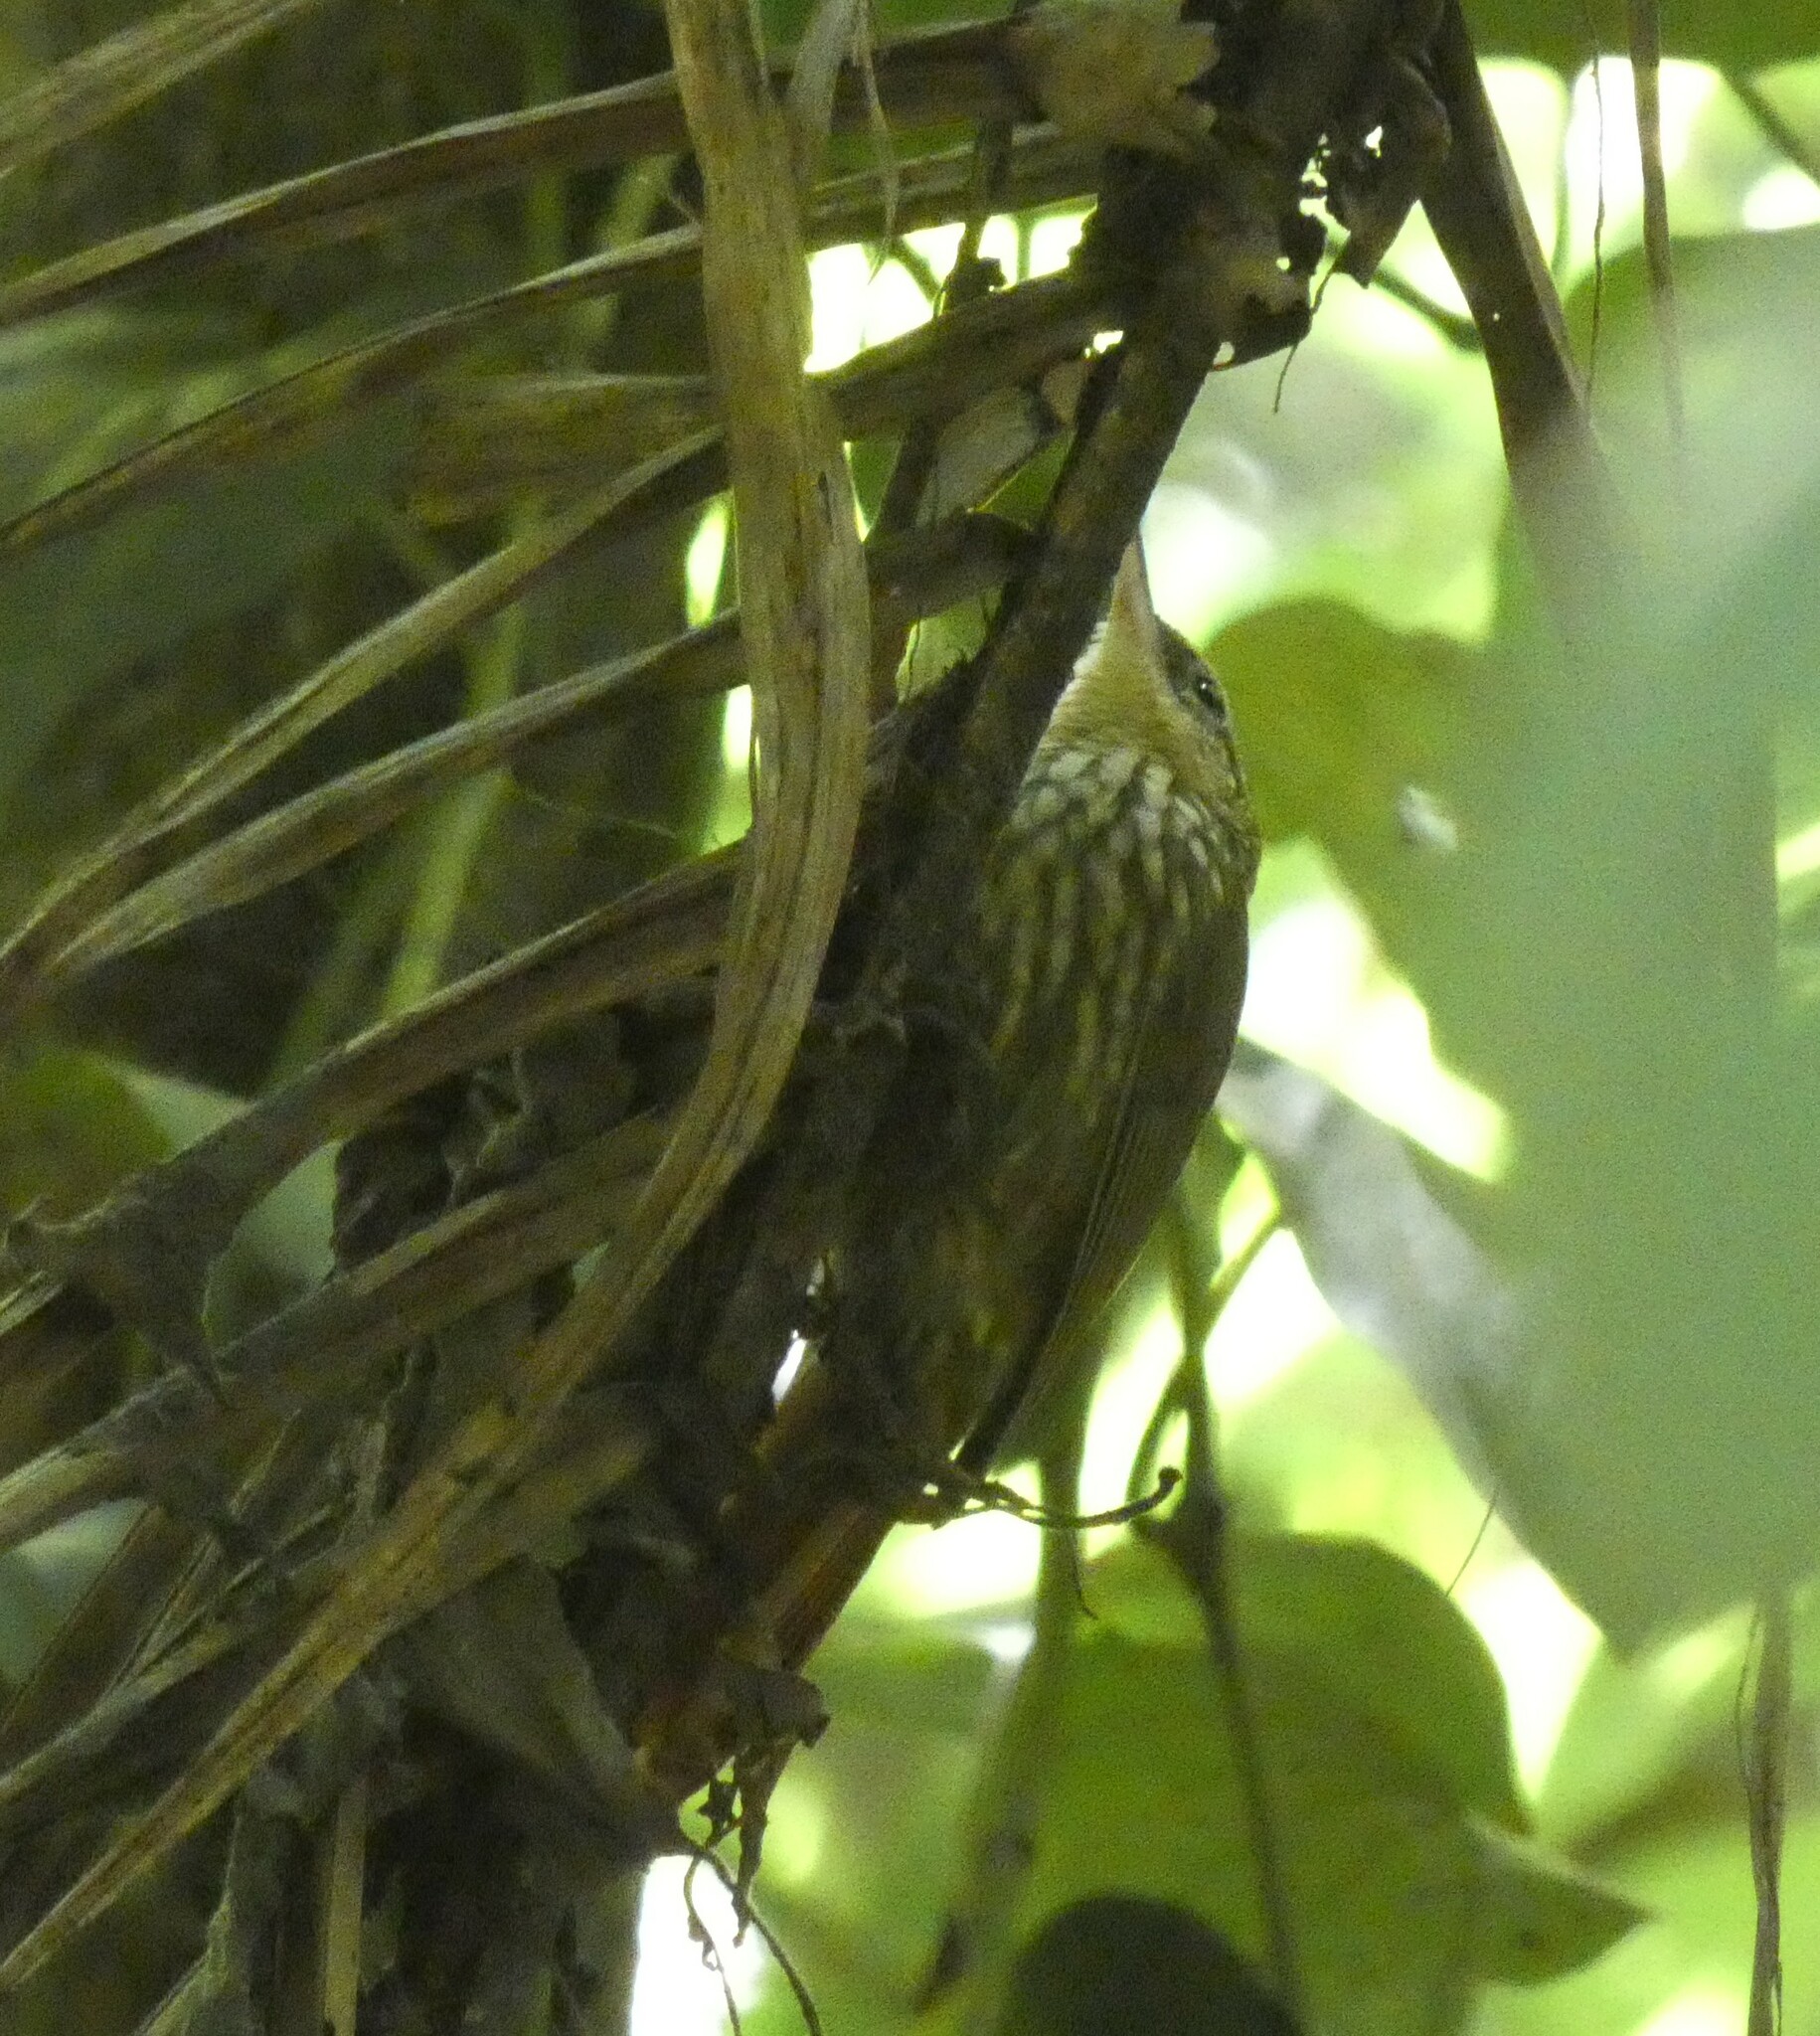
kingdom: Animalia
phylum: Chordata
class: Aves
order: Passeriformes
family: Furnariidae
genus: Xiphorhynchus
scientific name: Xiphorhynchus fuscus
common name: Lesser woodcreeper
